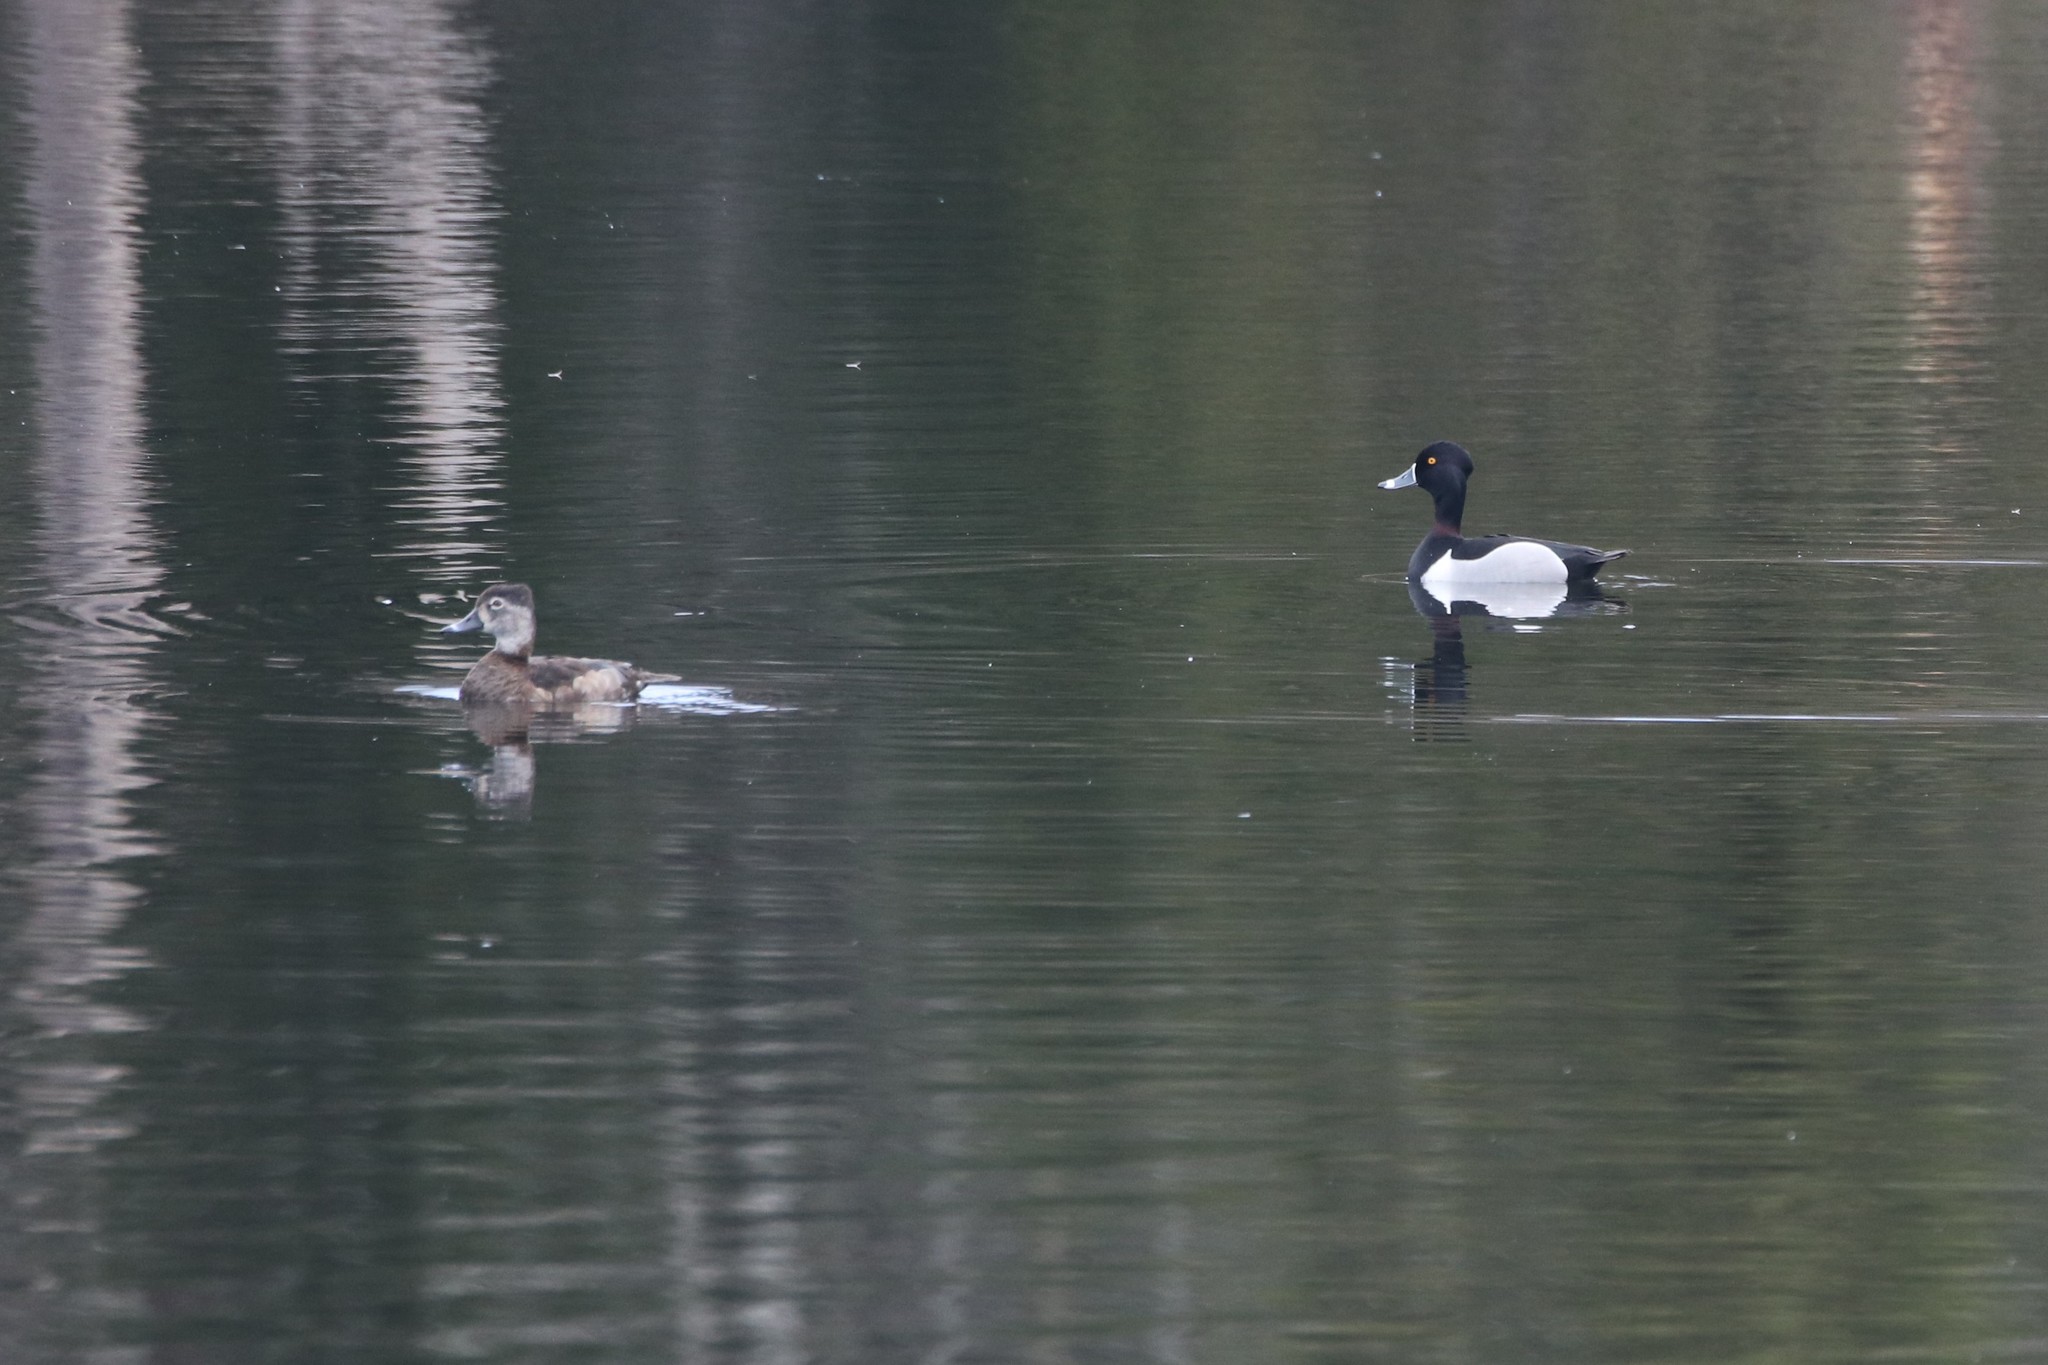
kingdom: Animalia
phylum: Chordata
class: Aves
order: Anseriformes
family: Anatidae
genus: Aythya
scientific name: Aythya collaris
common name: Ring-necked duck
